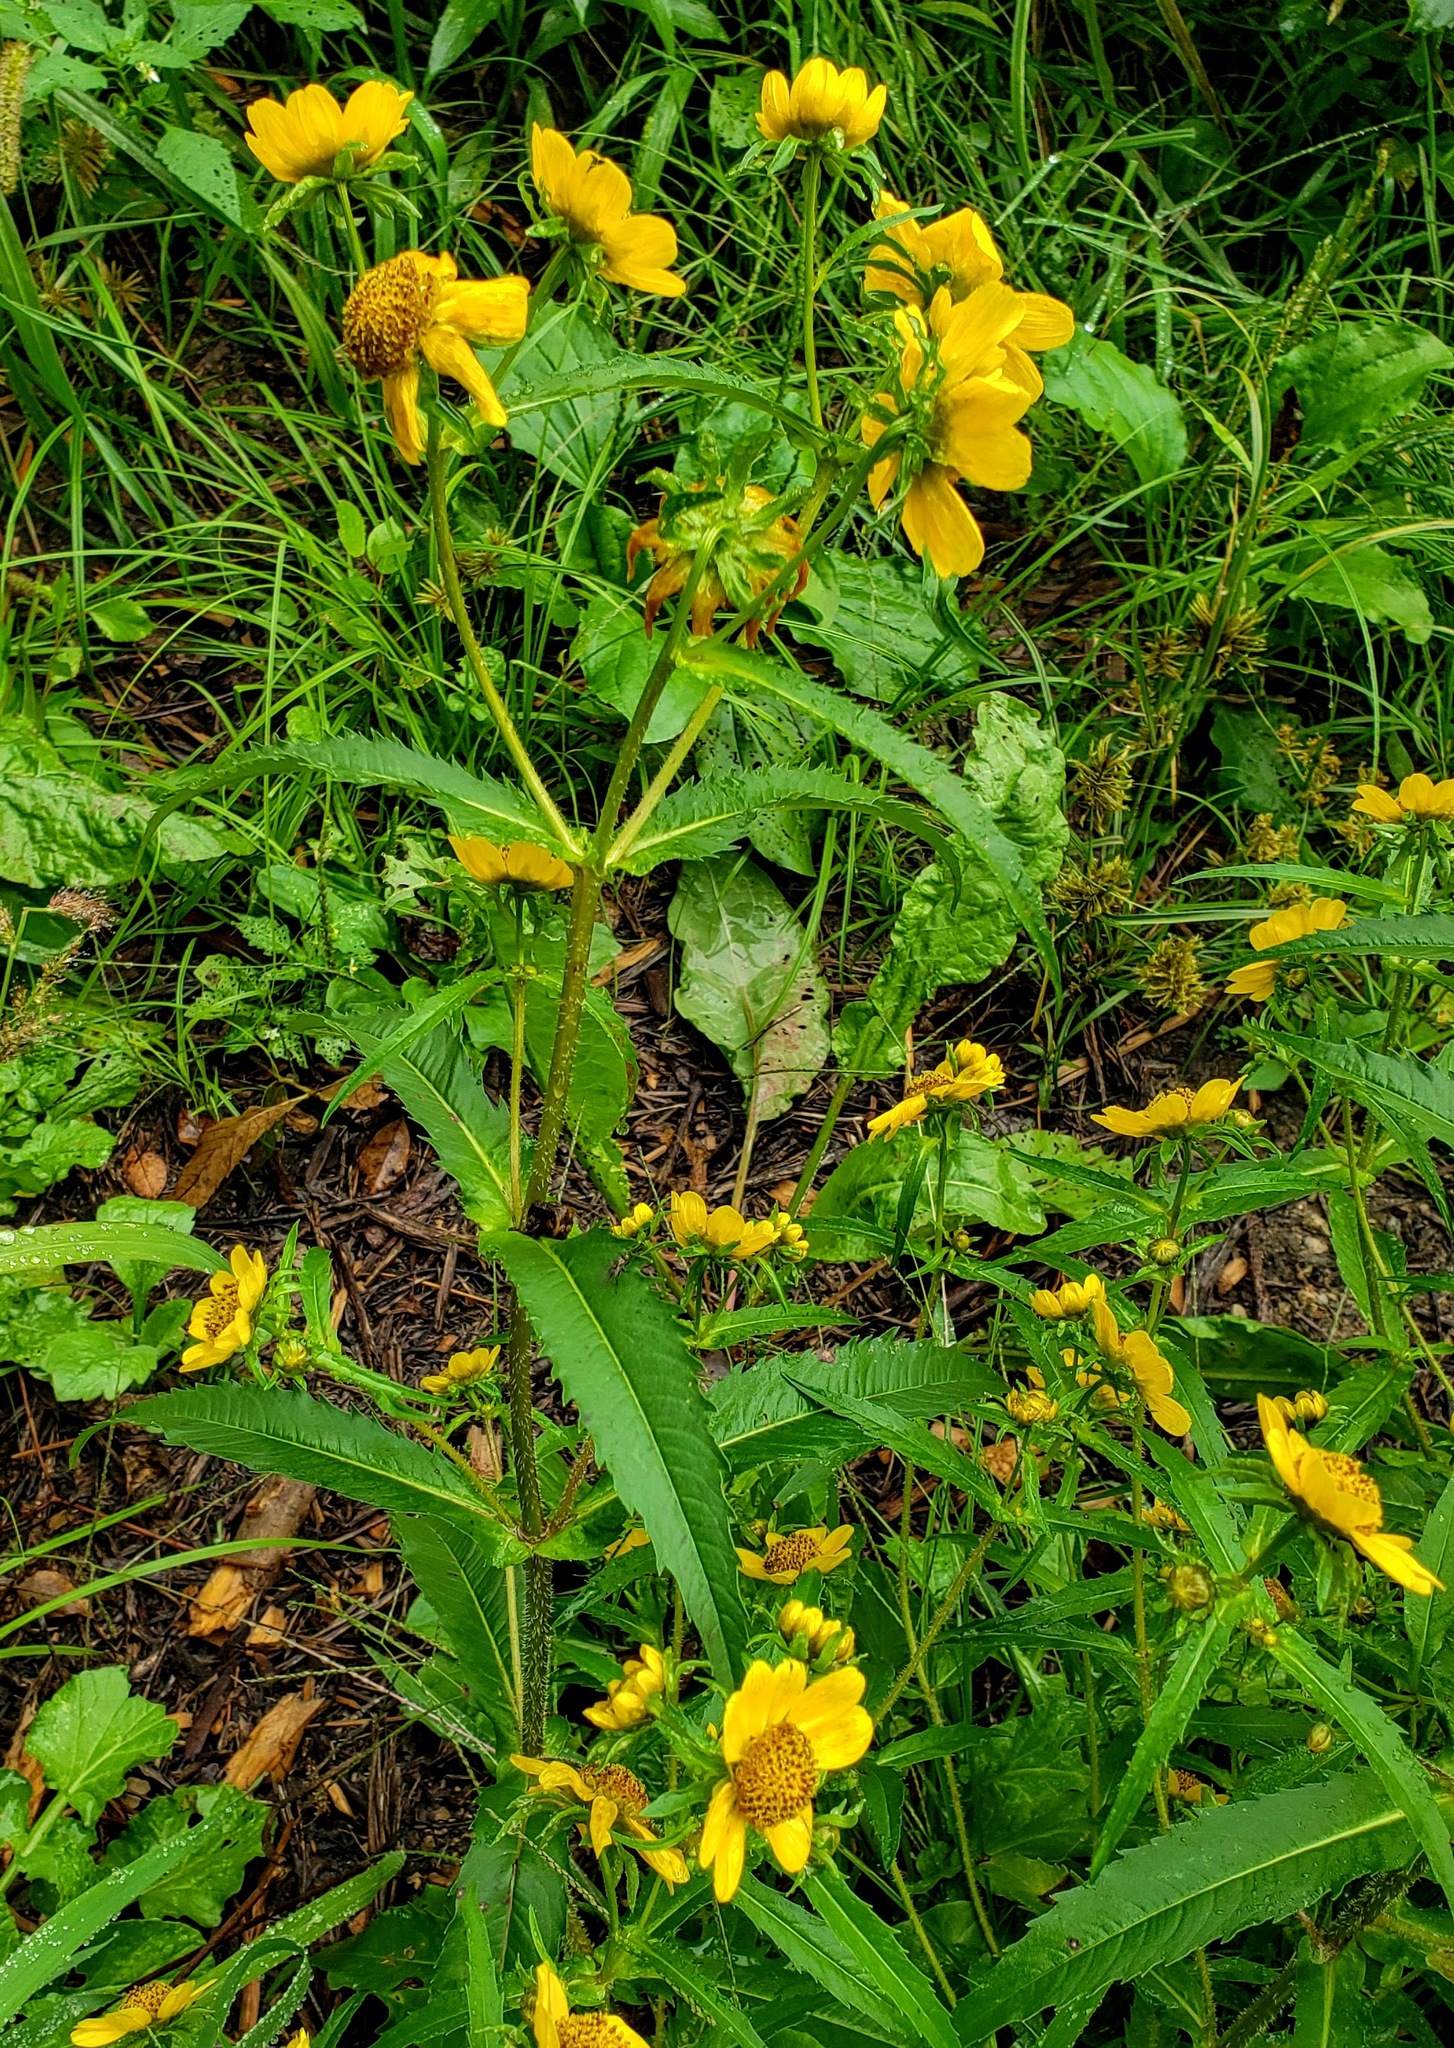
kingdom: Plantae
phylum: Tracheophyta
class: Magnoliopsida
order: Asterales
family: Asteraceae
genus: Bidens
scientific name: Bidens cernua
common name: Nodding bur-marigold
